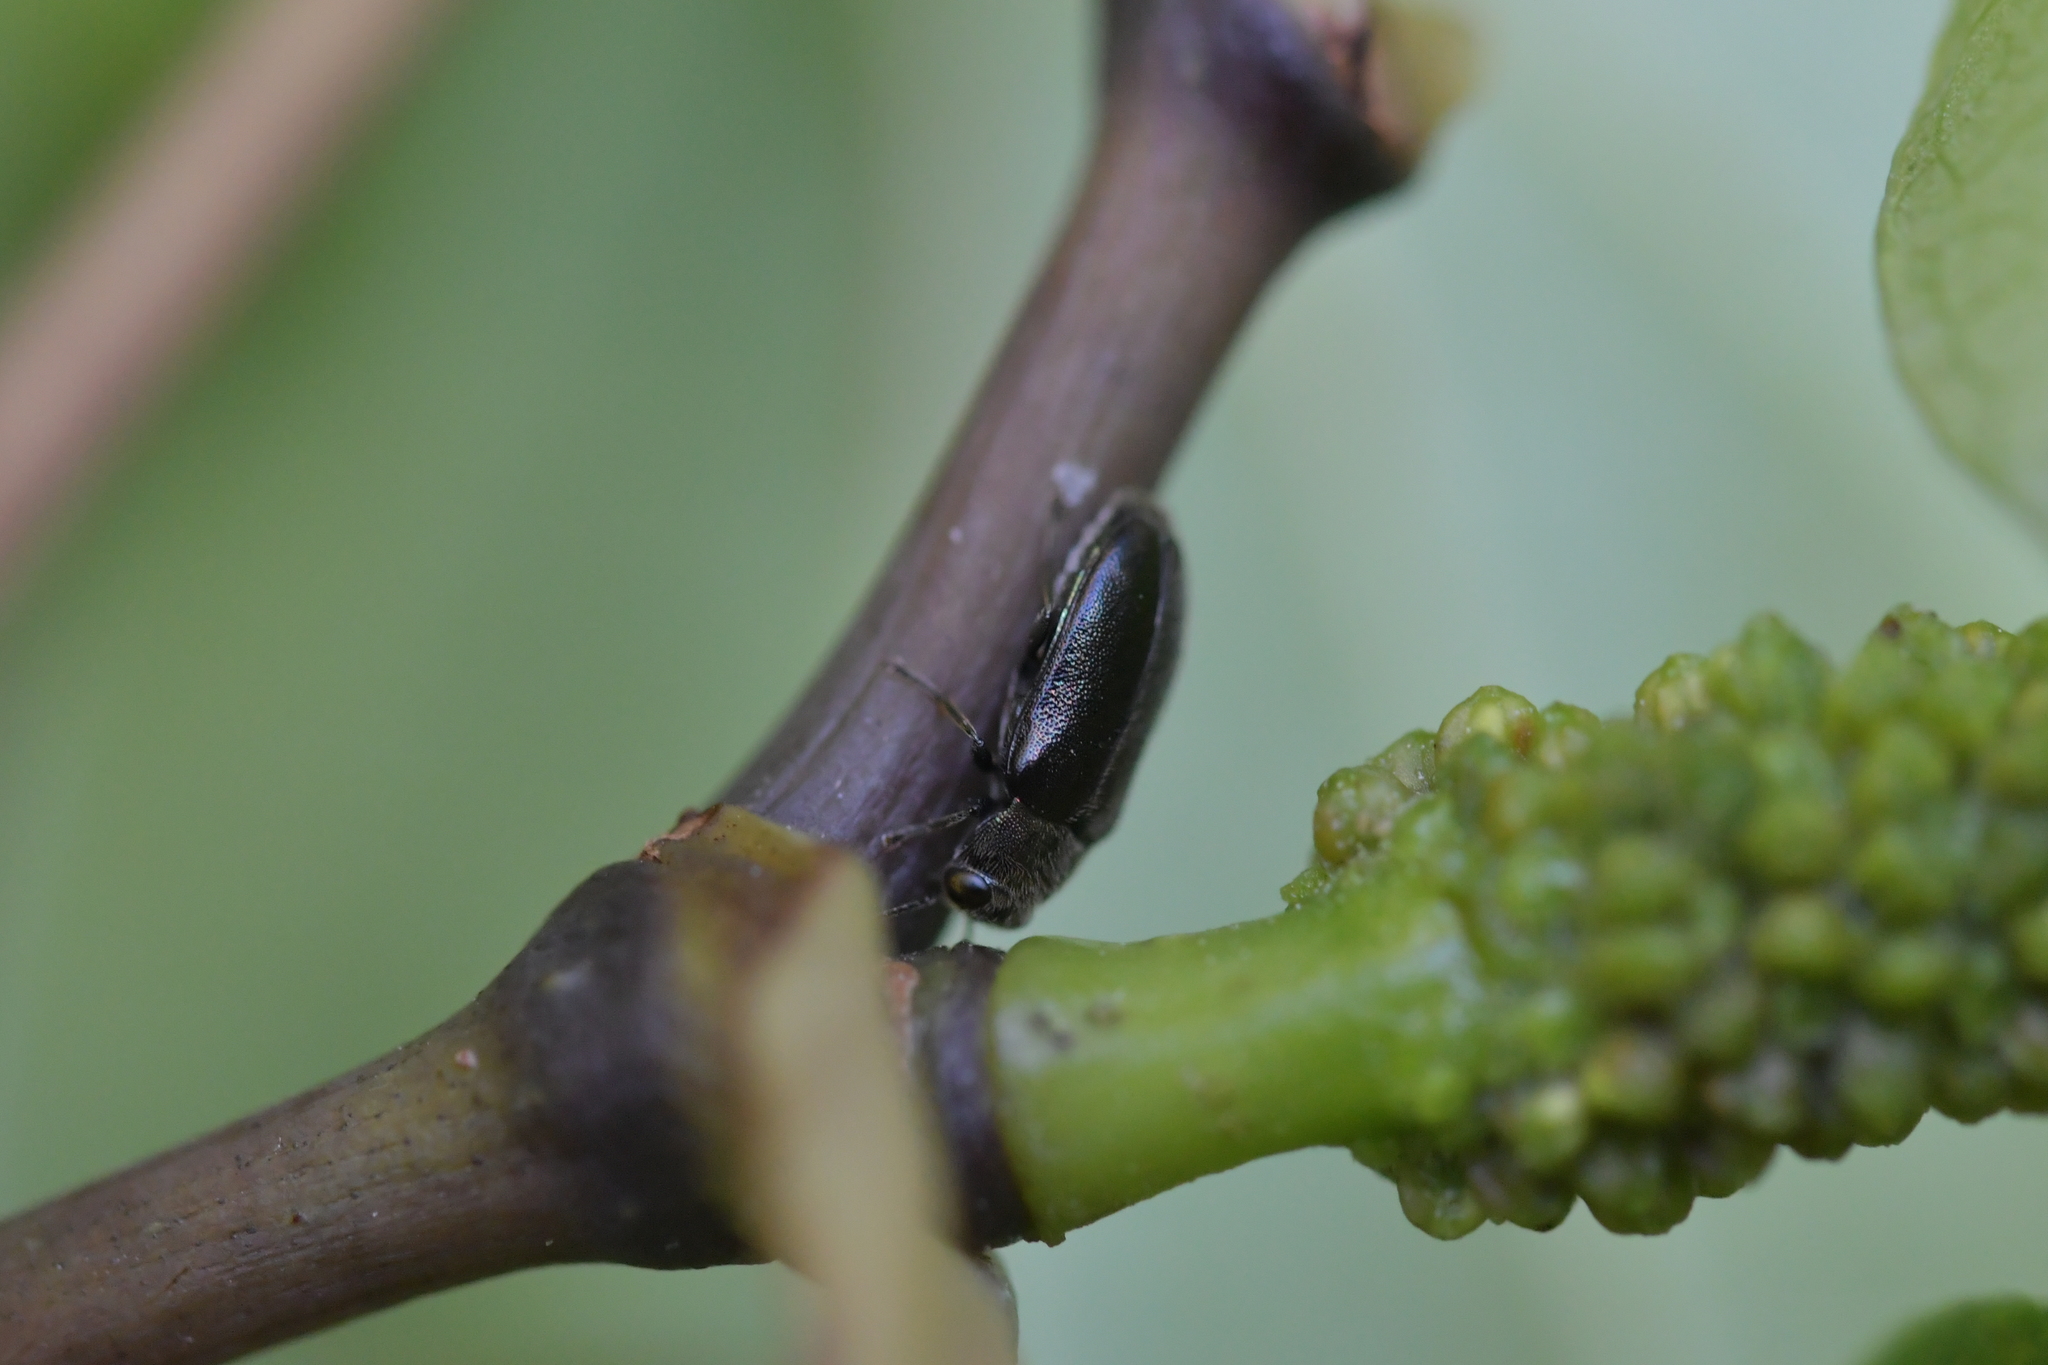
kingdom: Animalia
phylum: Arthropoda
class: Insecta
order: Coleoptera
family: Buprestidae
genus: Maoraxia
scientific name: Maoraxia eremita
